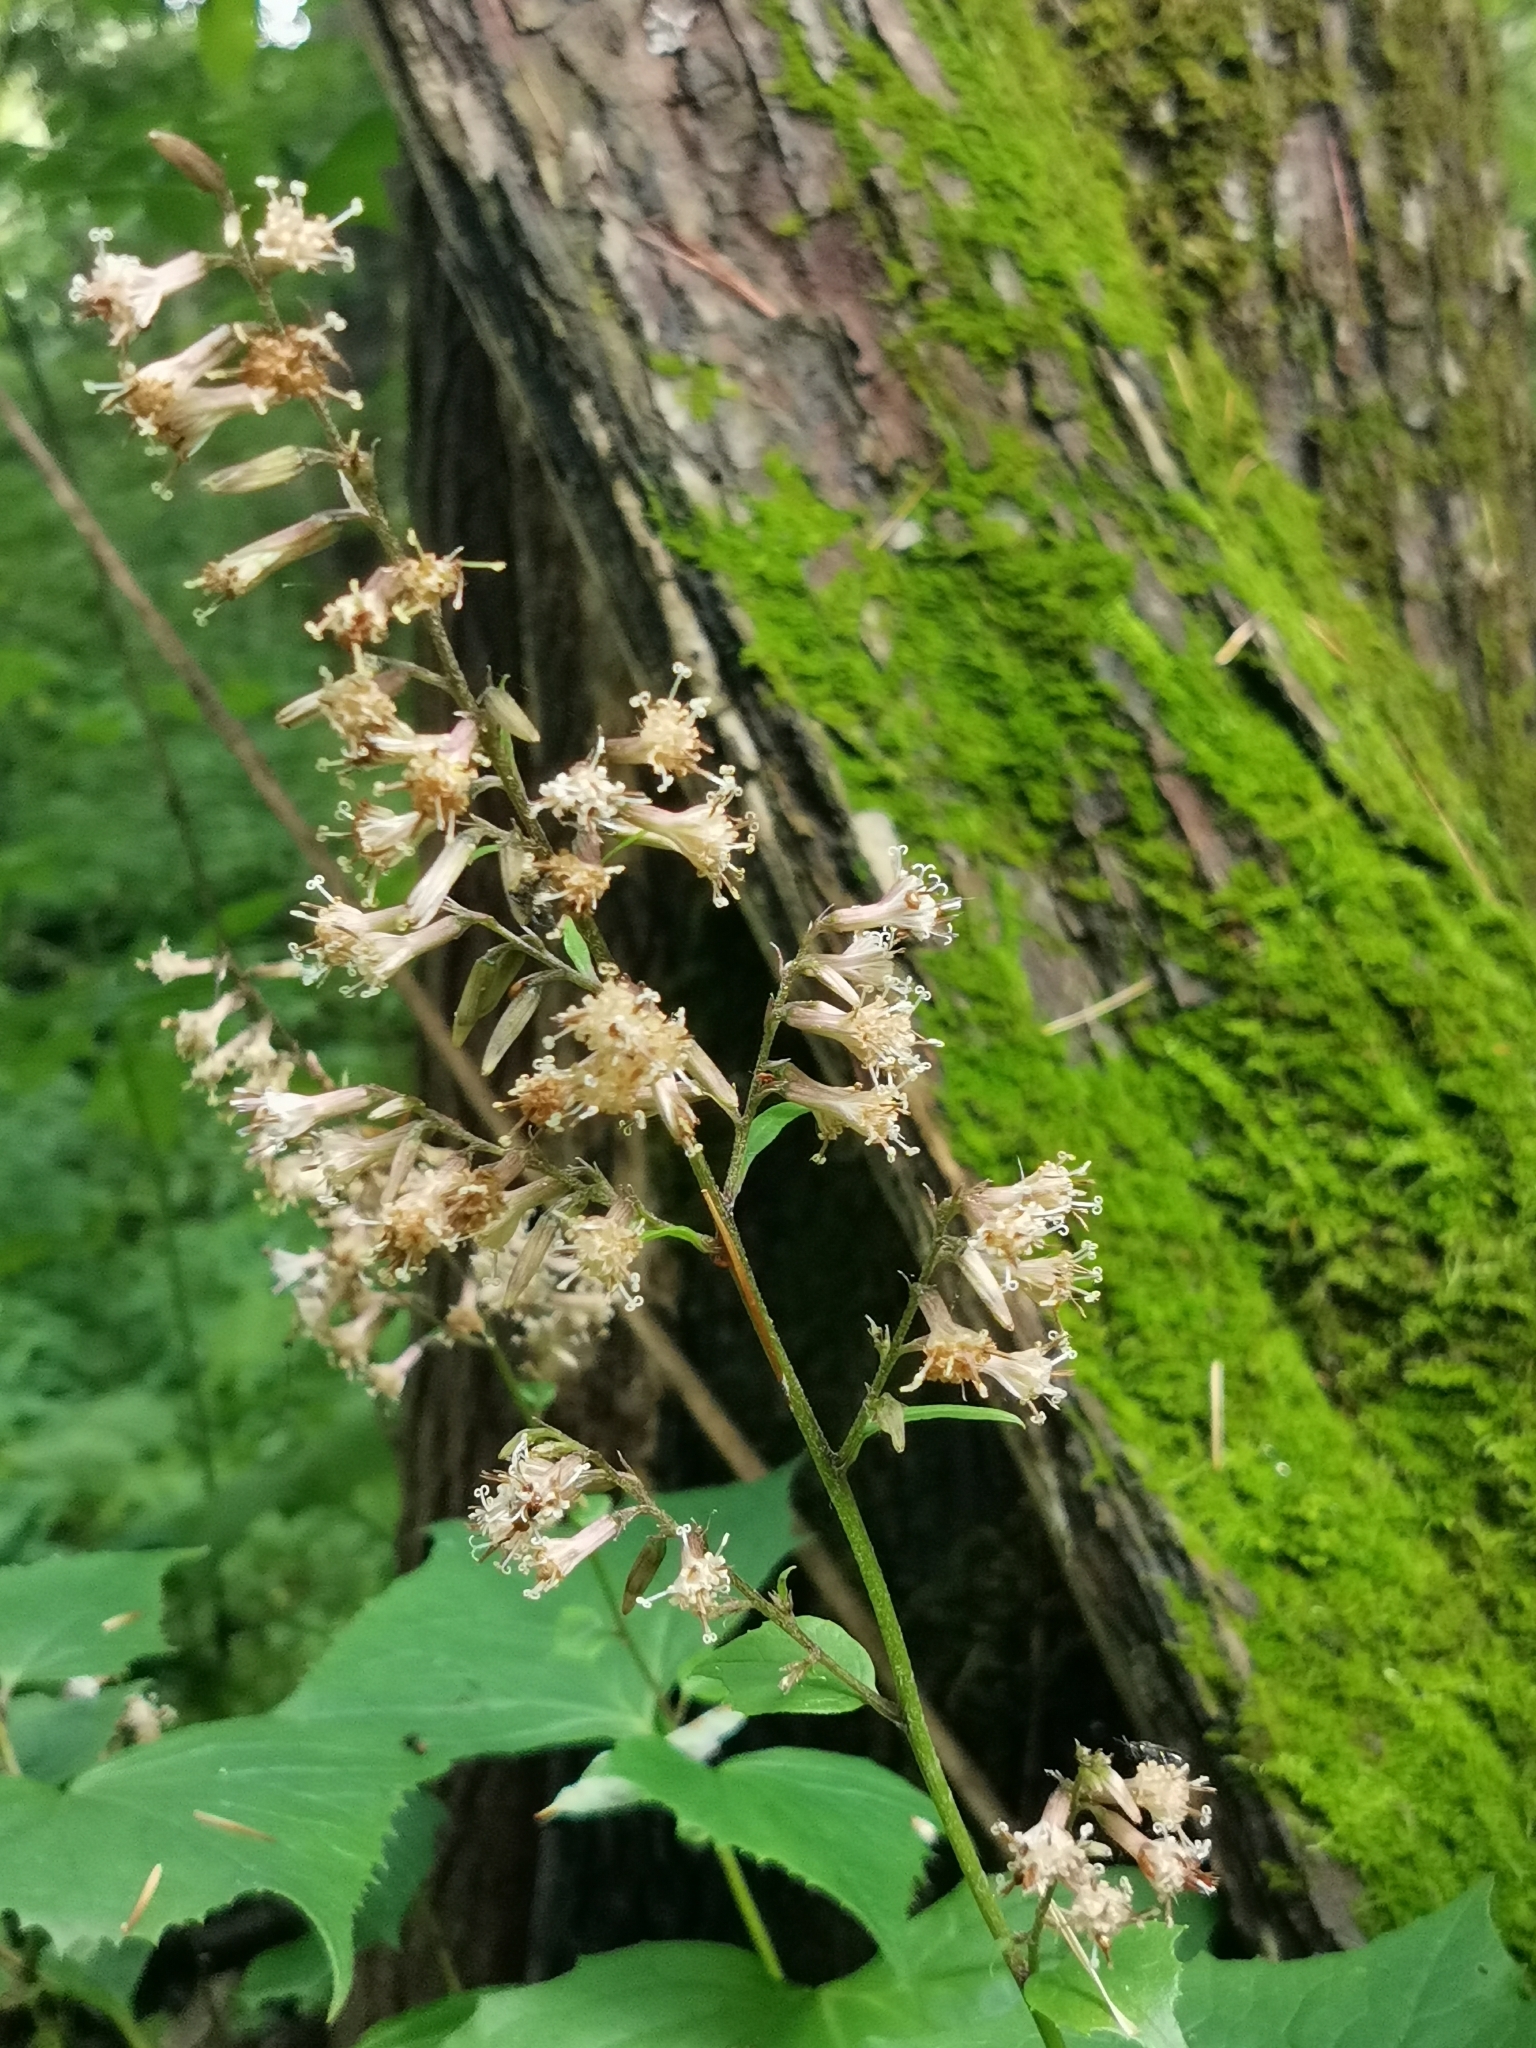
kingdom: Plantae
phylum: Tracheophyta
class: Magnoliopsida
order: Asterales
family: Asteraceae
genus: Parasenecio
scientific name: Parasenecio praetermissus
